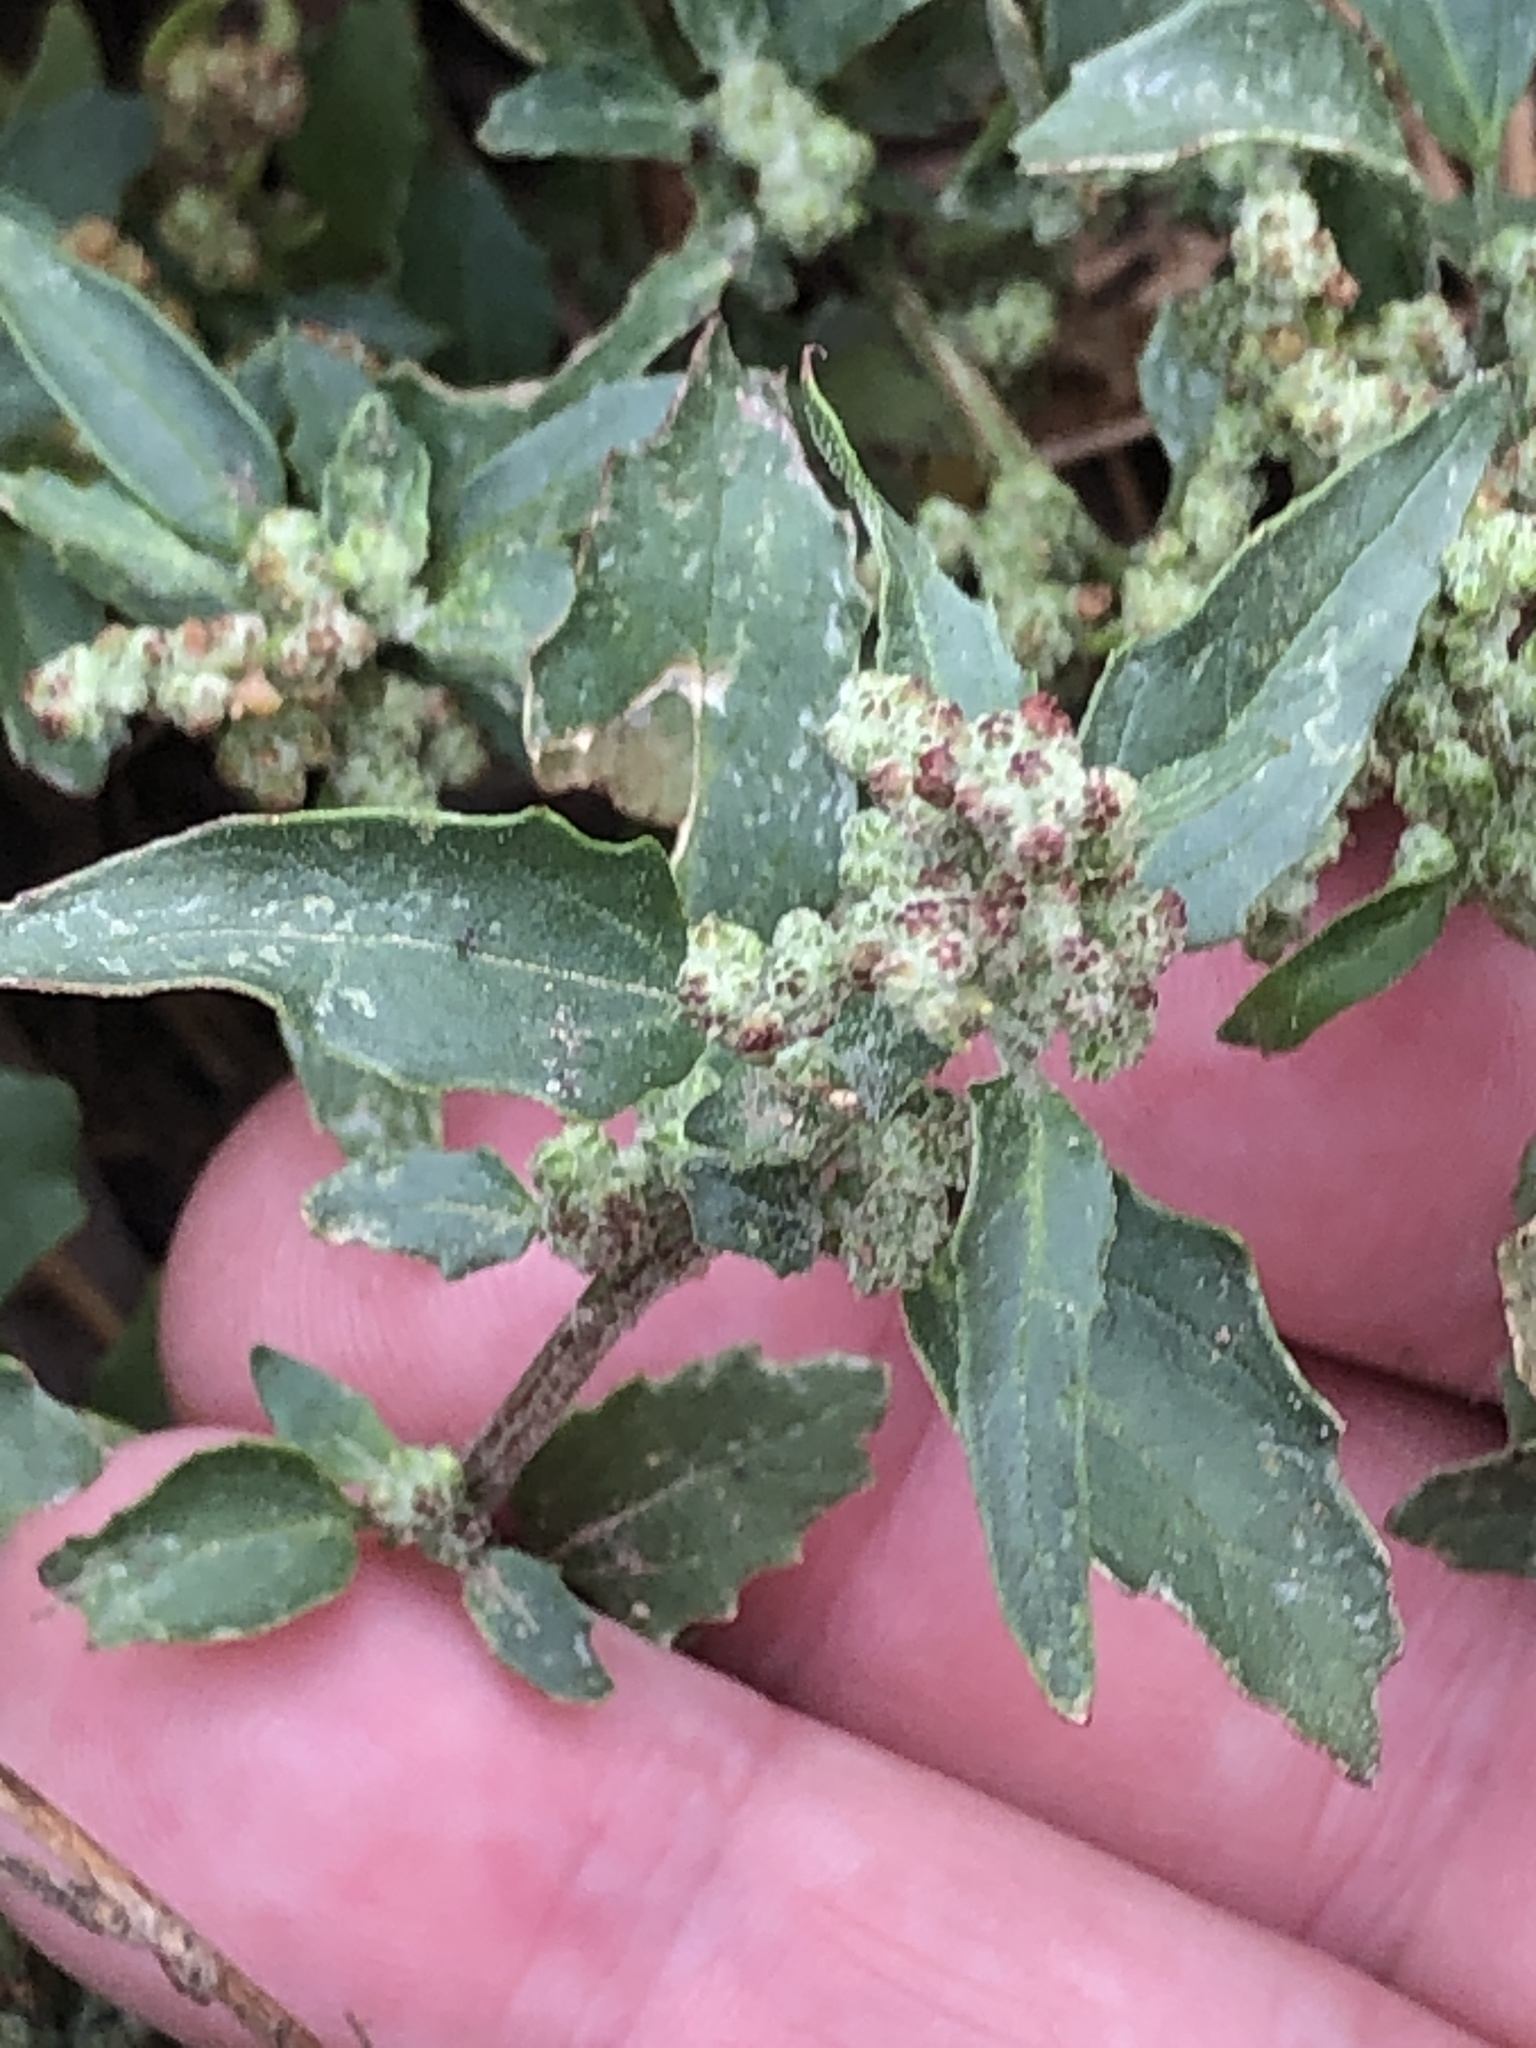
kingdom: Plantae
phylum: Tracheophyta
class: Magnoliopsida
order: Caryophyllales
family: Amaranthaceae
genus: Chenopodiastrum
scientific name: Chenopodiastrum murale
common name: Sowbane
